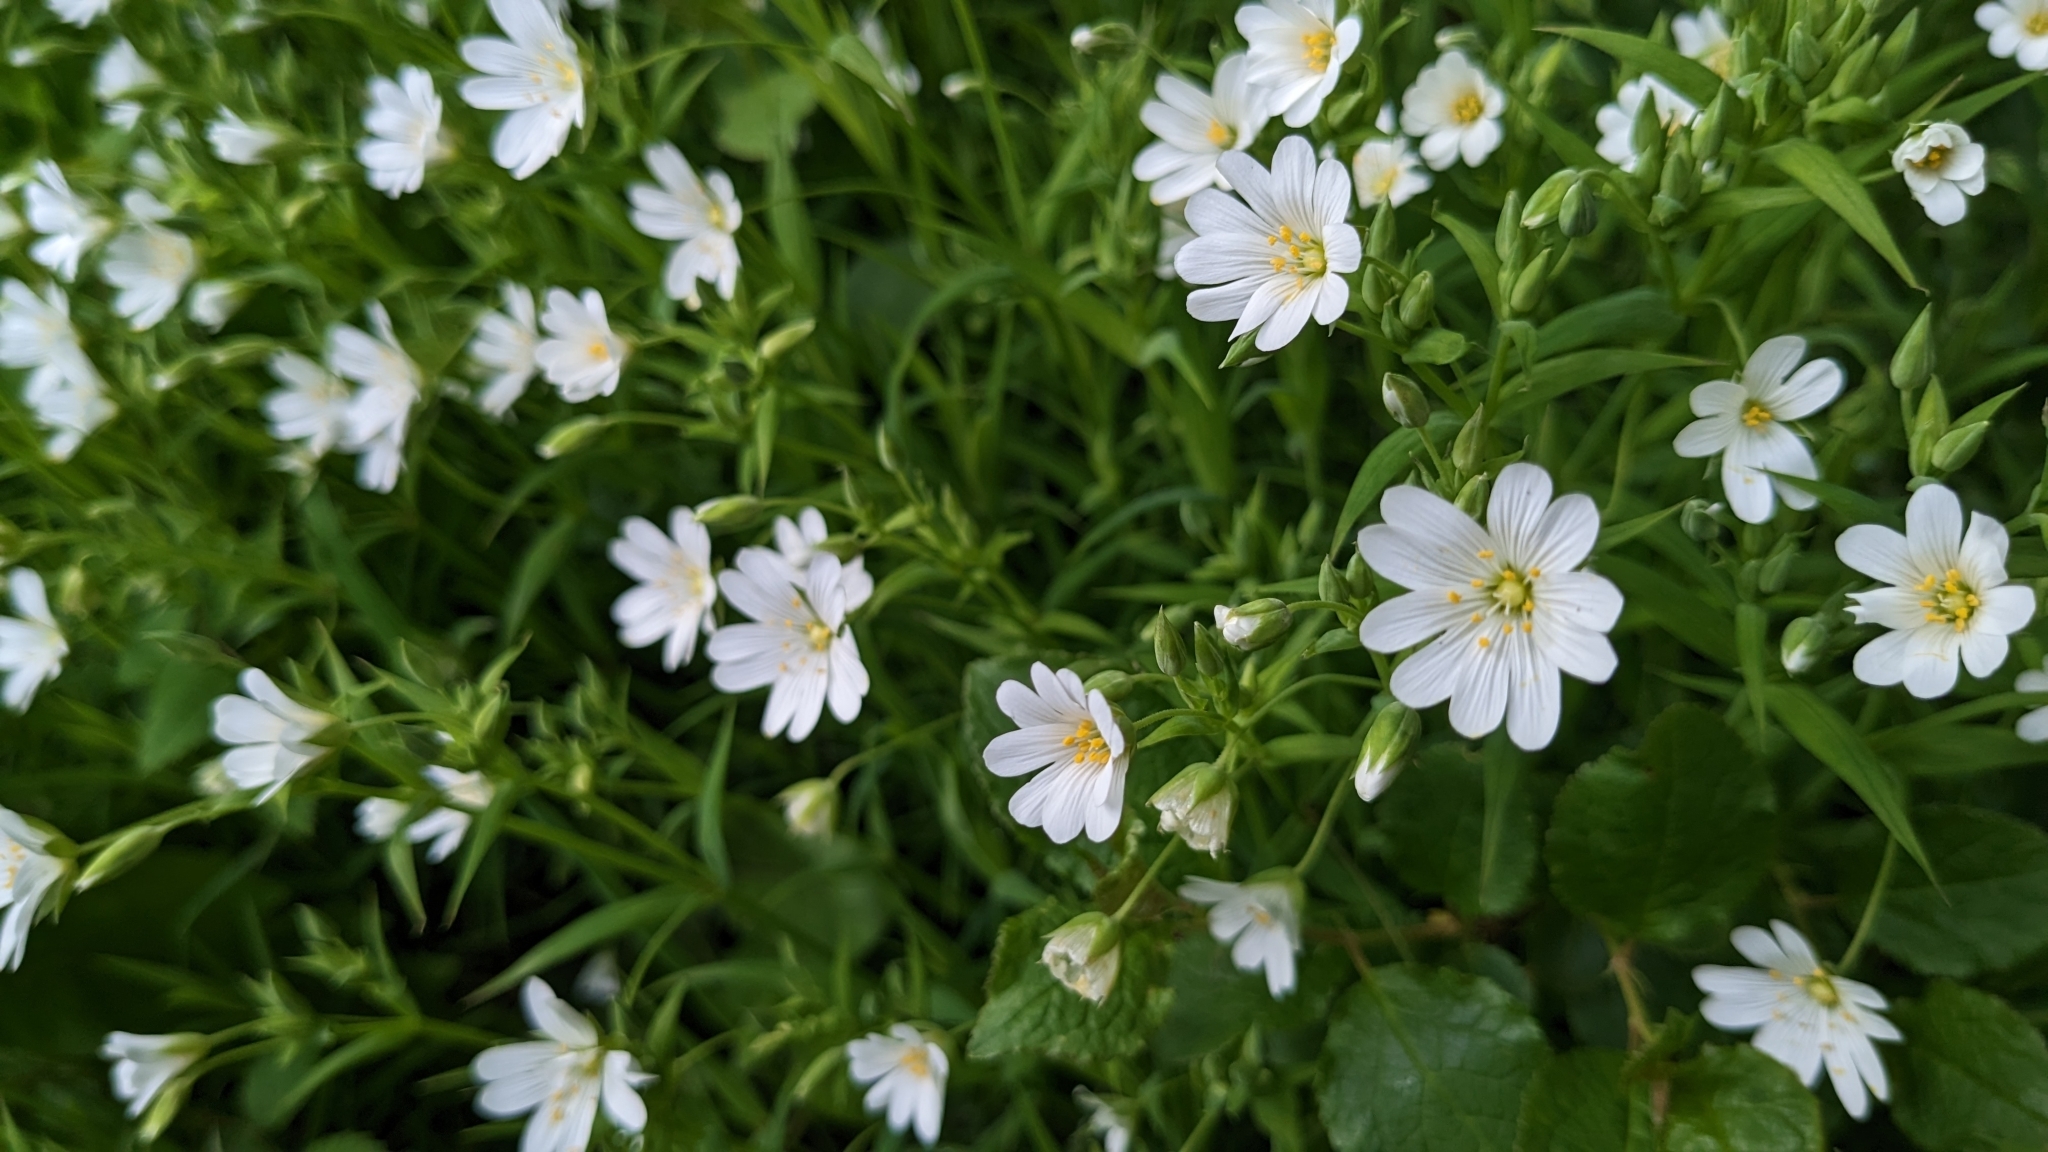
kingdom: Plantae
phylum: Tracheophyta
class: Magnoliopsida
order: Caryophyllales
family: Caryophyllaceae
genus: Rabelera
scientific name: Rabelera holostea
